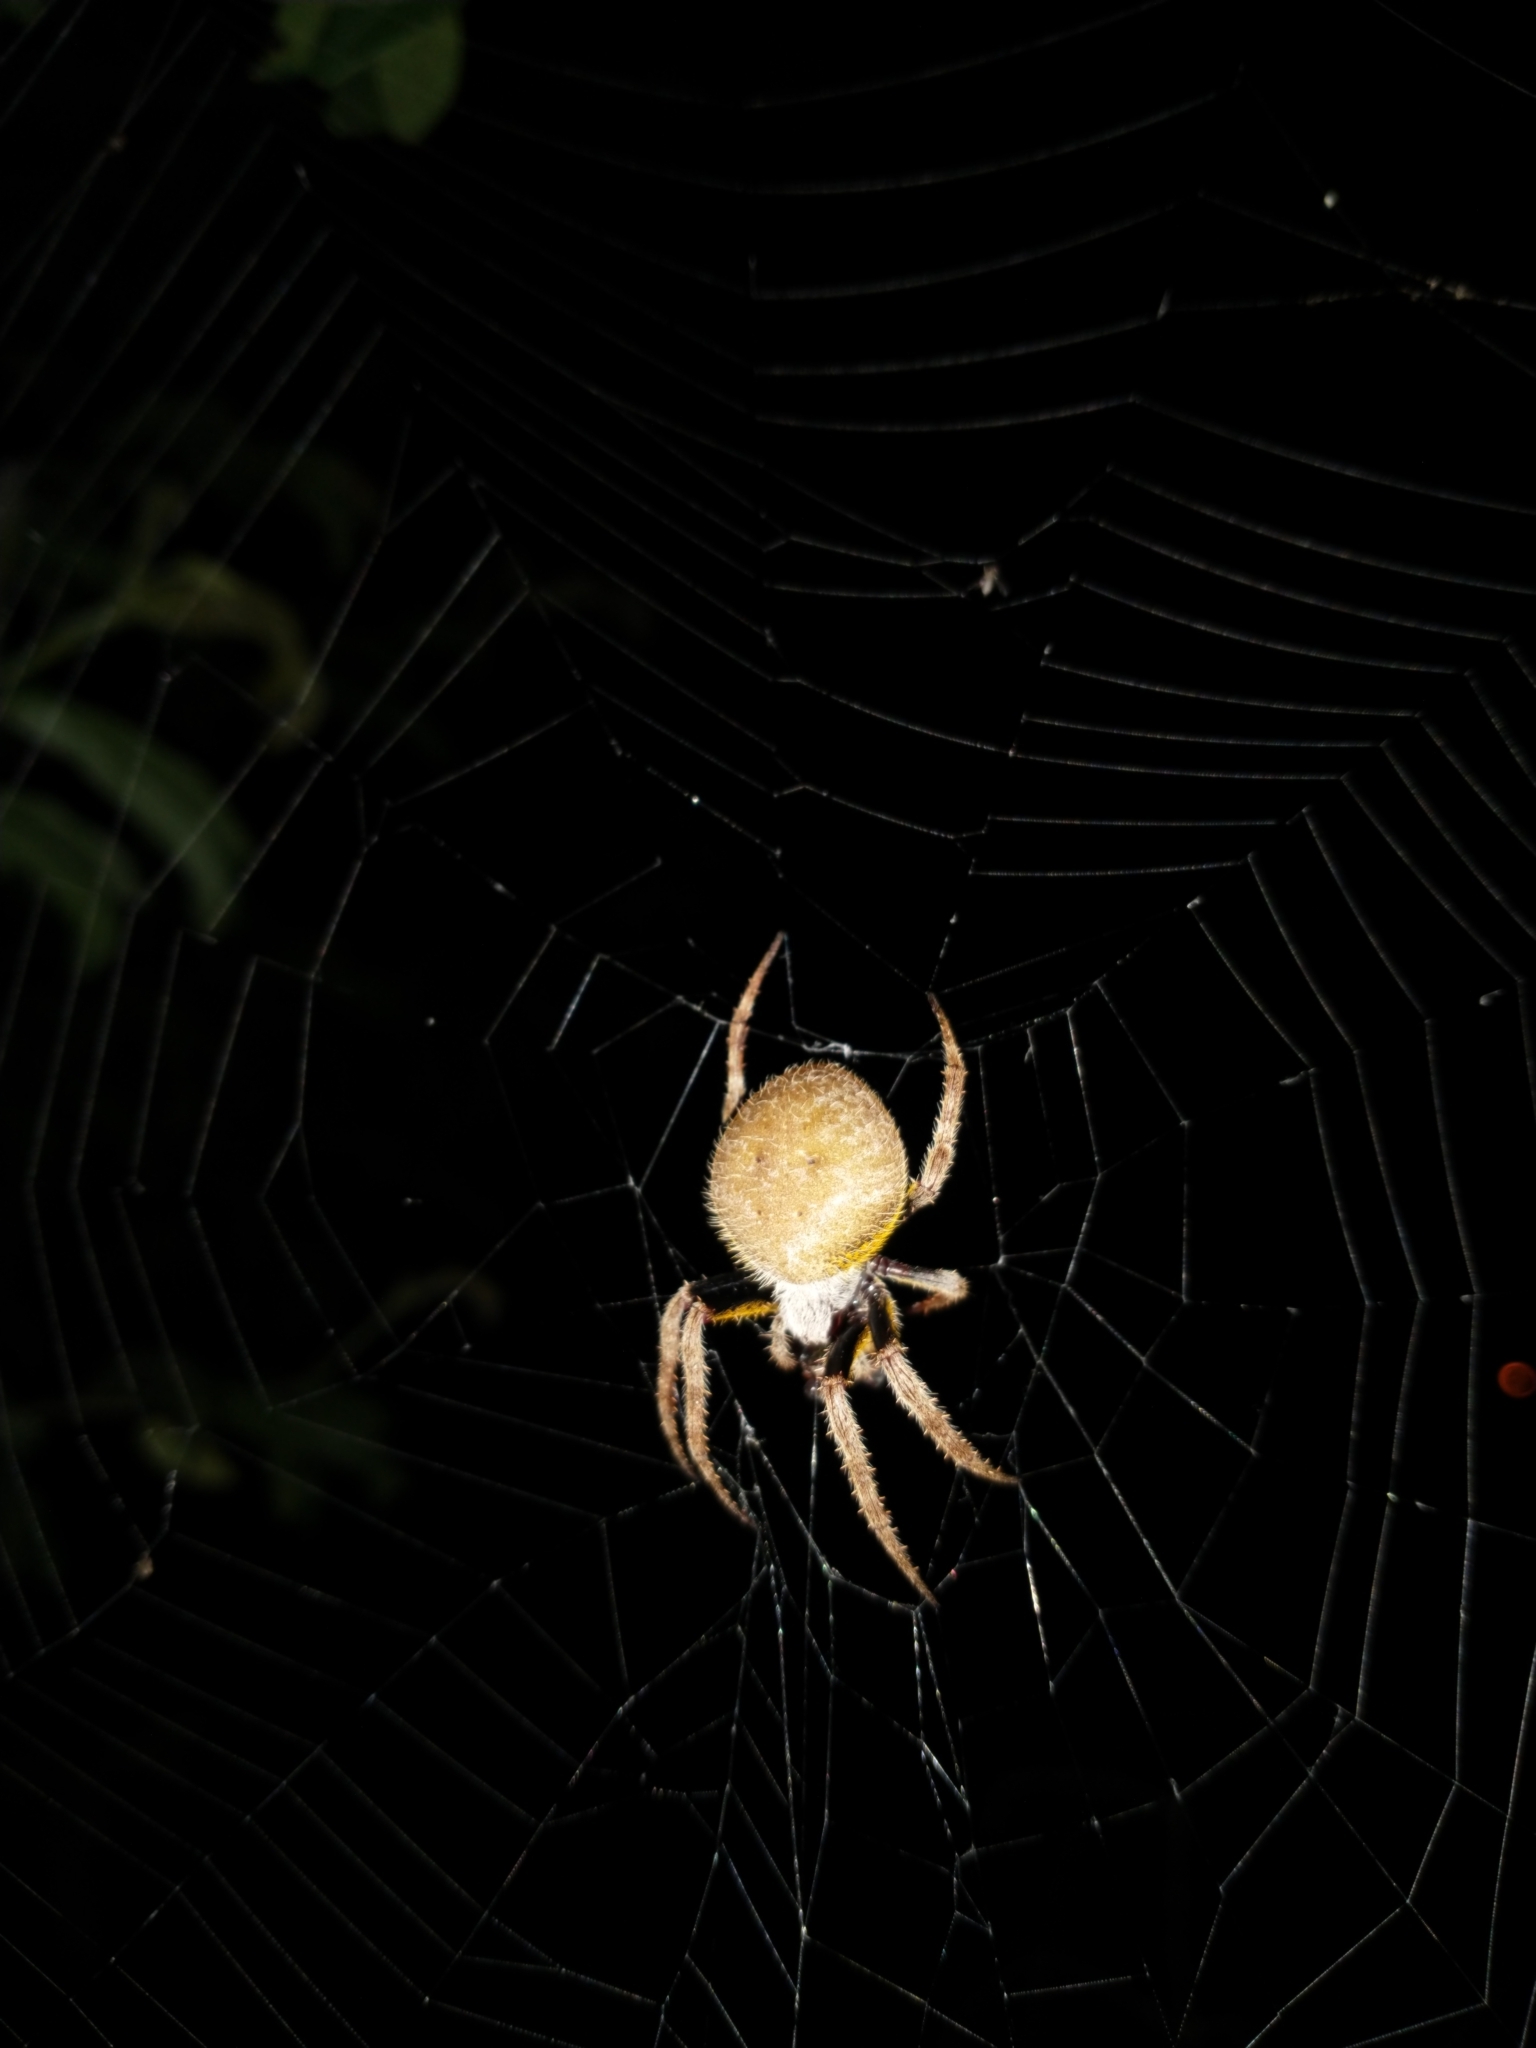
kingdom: Animalia
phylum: Arthropoda
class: Arachnida
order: Araneae
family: Araneidae
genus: Eriophora
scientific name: Eriophora ravilla
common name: Orb weavers
